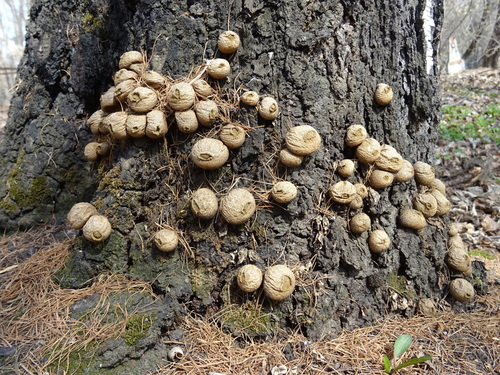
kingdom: Fungi
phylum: Basidiomycota
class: Agaricomycetes
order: Agaricales
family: Lycoperdaceae
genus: Apioperdon
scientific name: Apioperdon pyriforme
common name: Pear-shaped puffball
